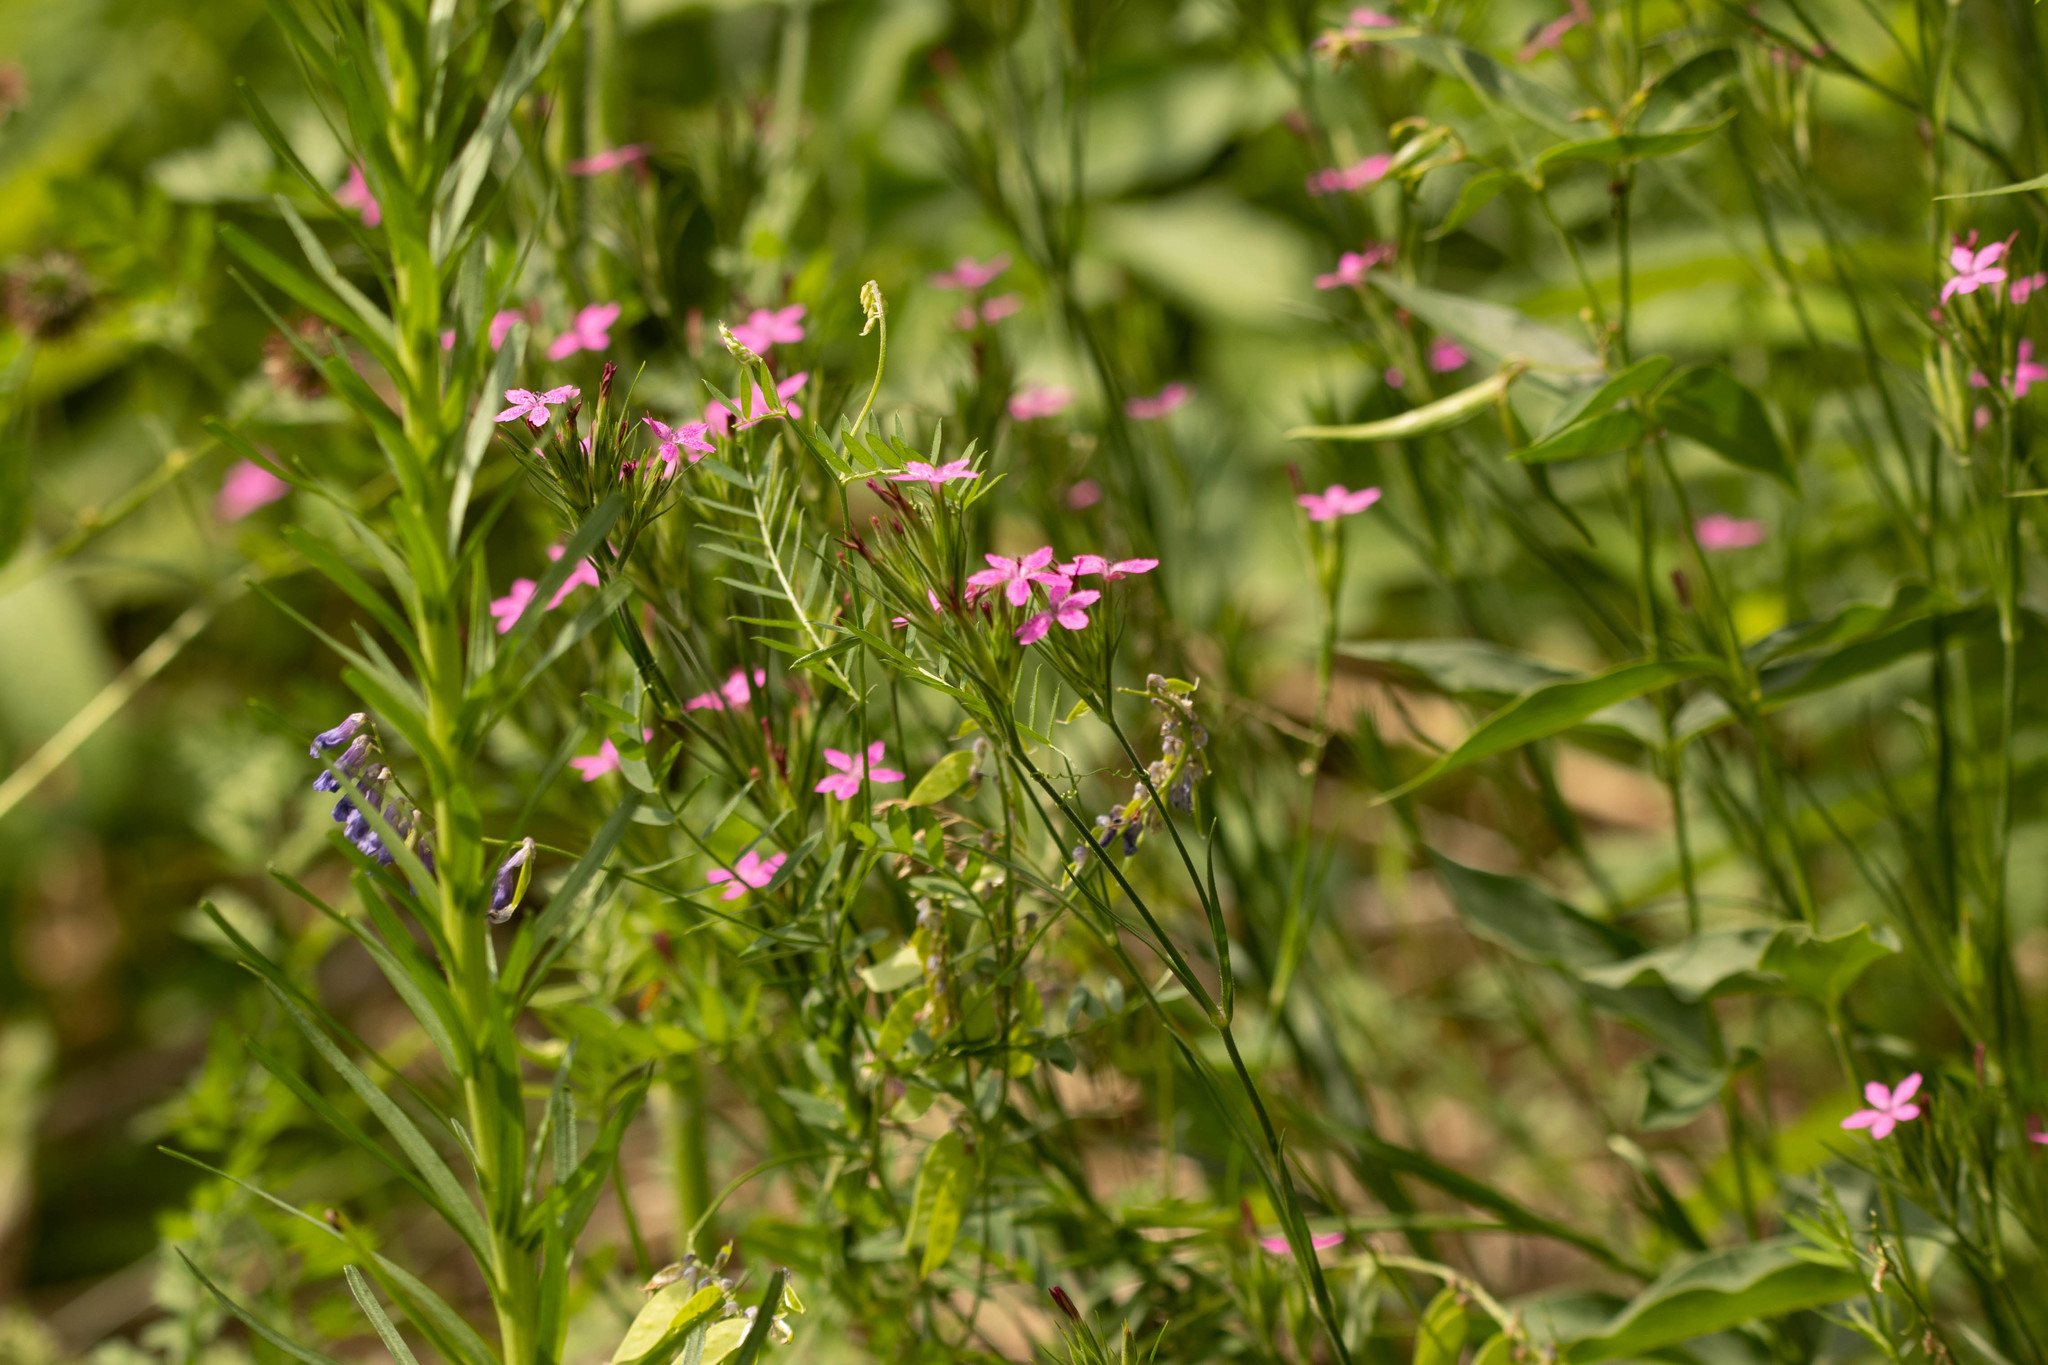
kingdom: Plantae
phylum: Tracheophyta
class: Magnoliopsida
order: Caryophyllales
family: Caryophyllaceae
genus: Dianthus
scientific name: Dianthus armeria
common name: Deptford pink
